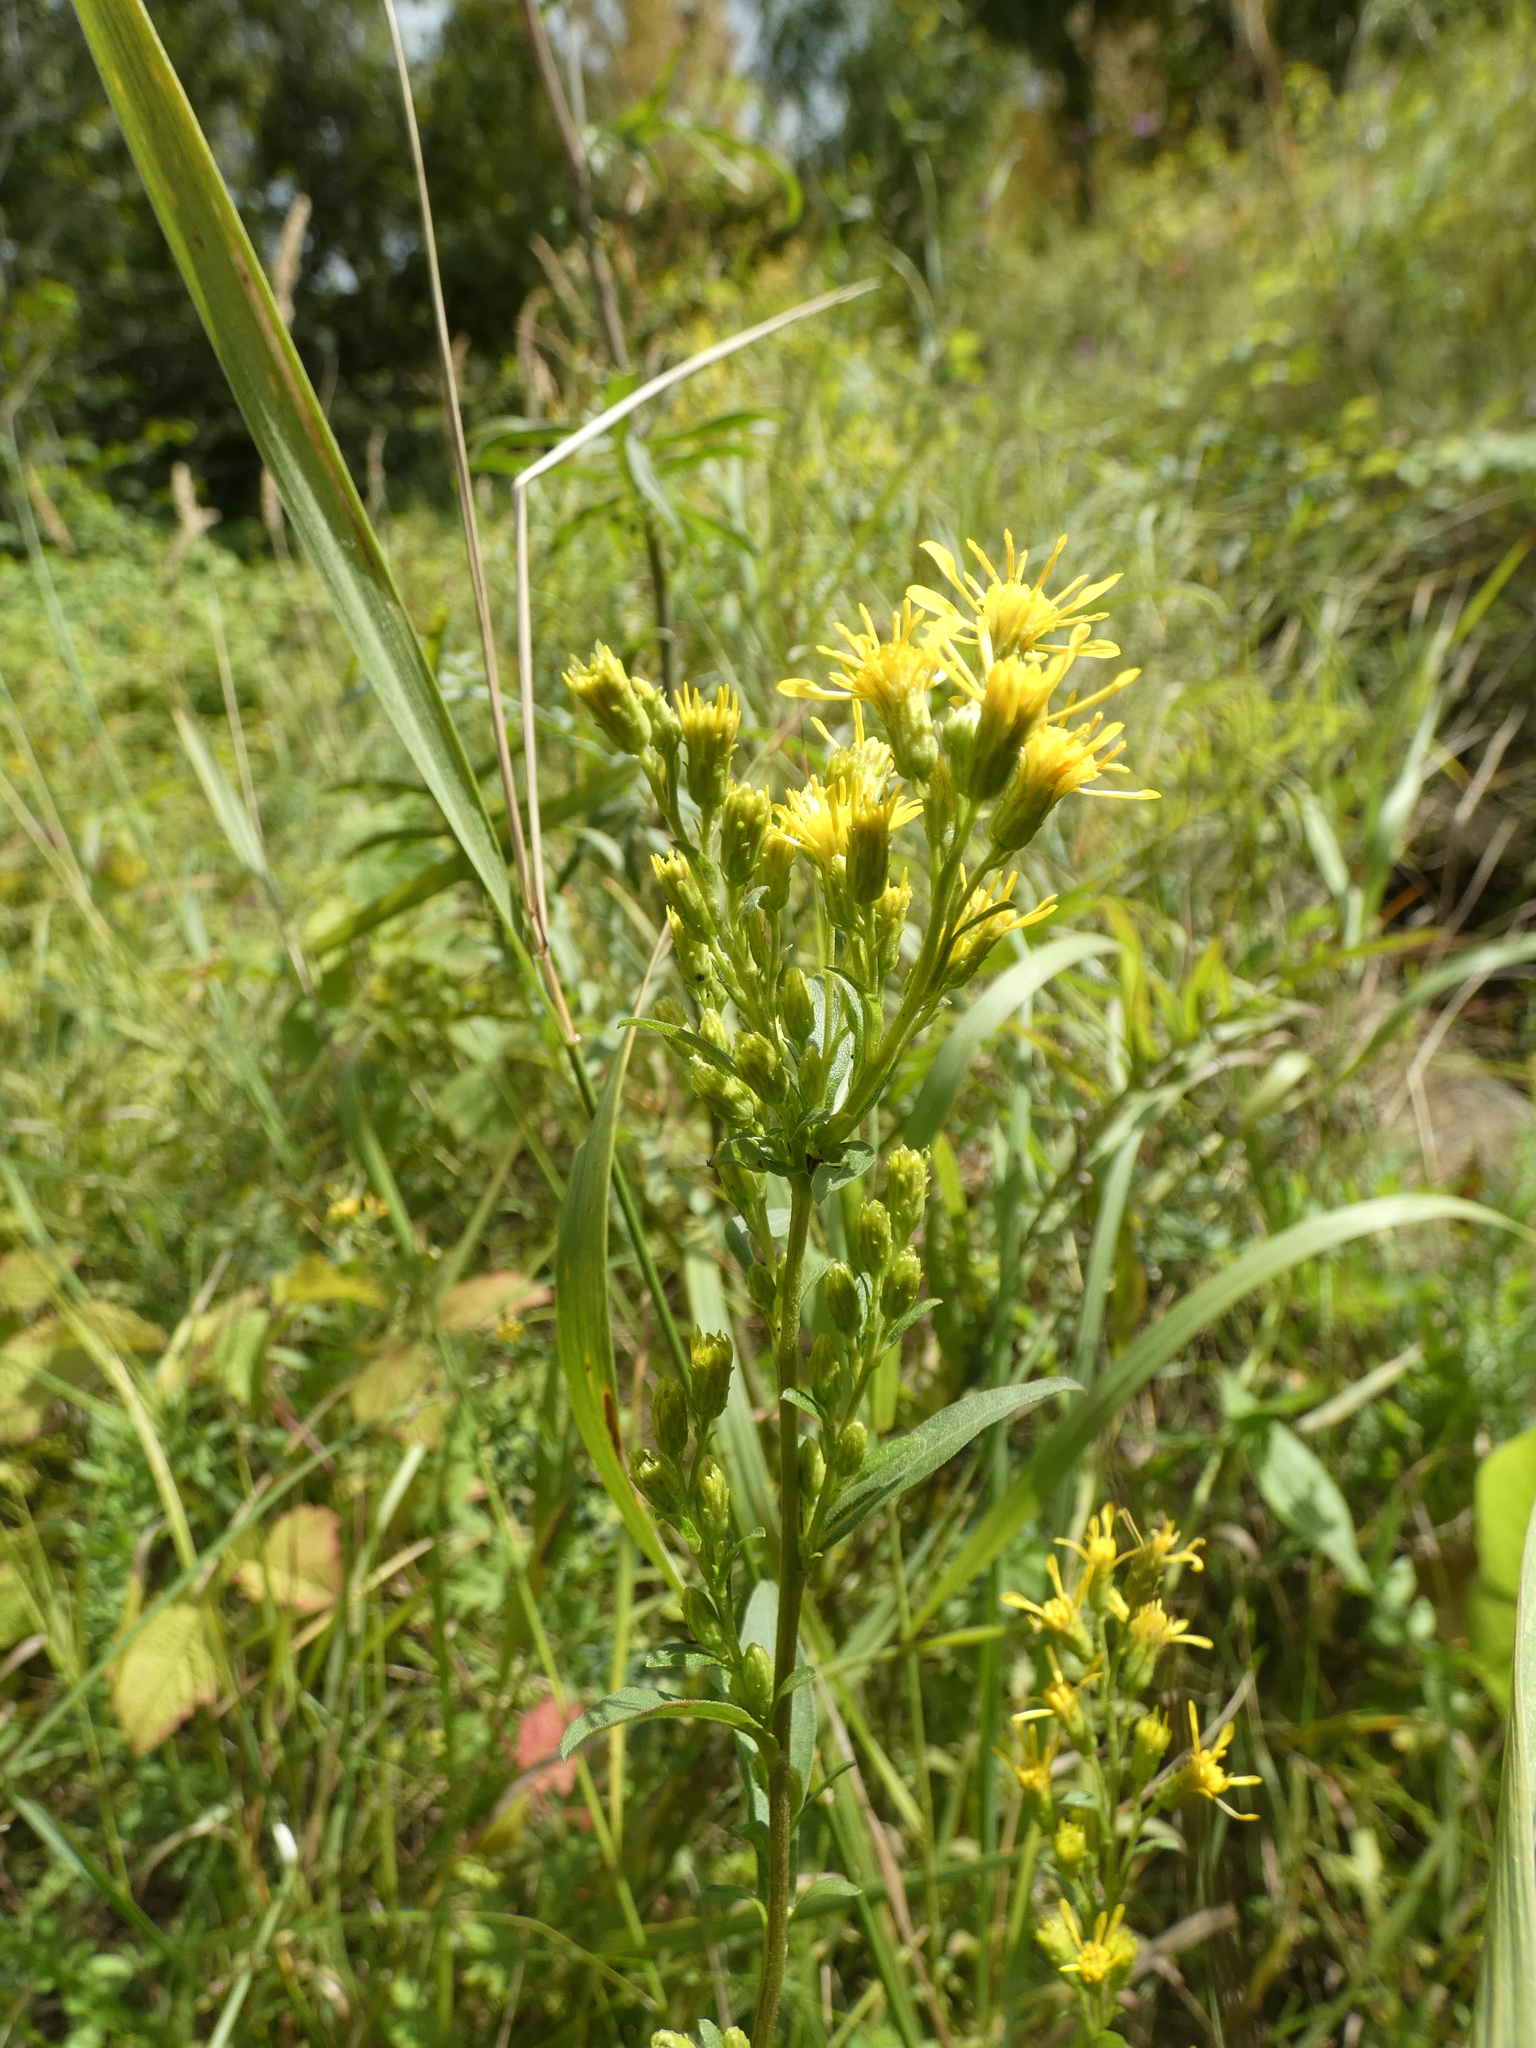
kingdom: Plantae
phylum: Tracheophyta
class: Magnoliopsida
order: Asterales
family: Asteraceae
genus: Solidago
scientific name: Solidago virgaurea
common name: Goldenrod
